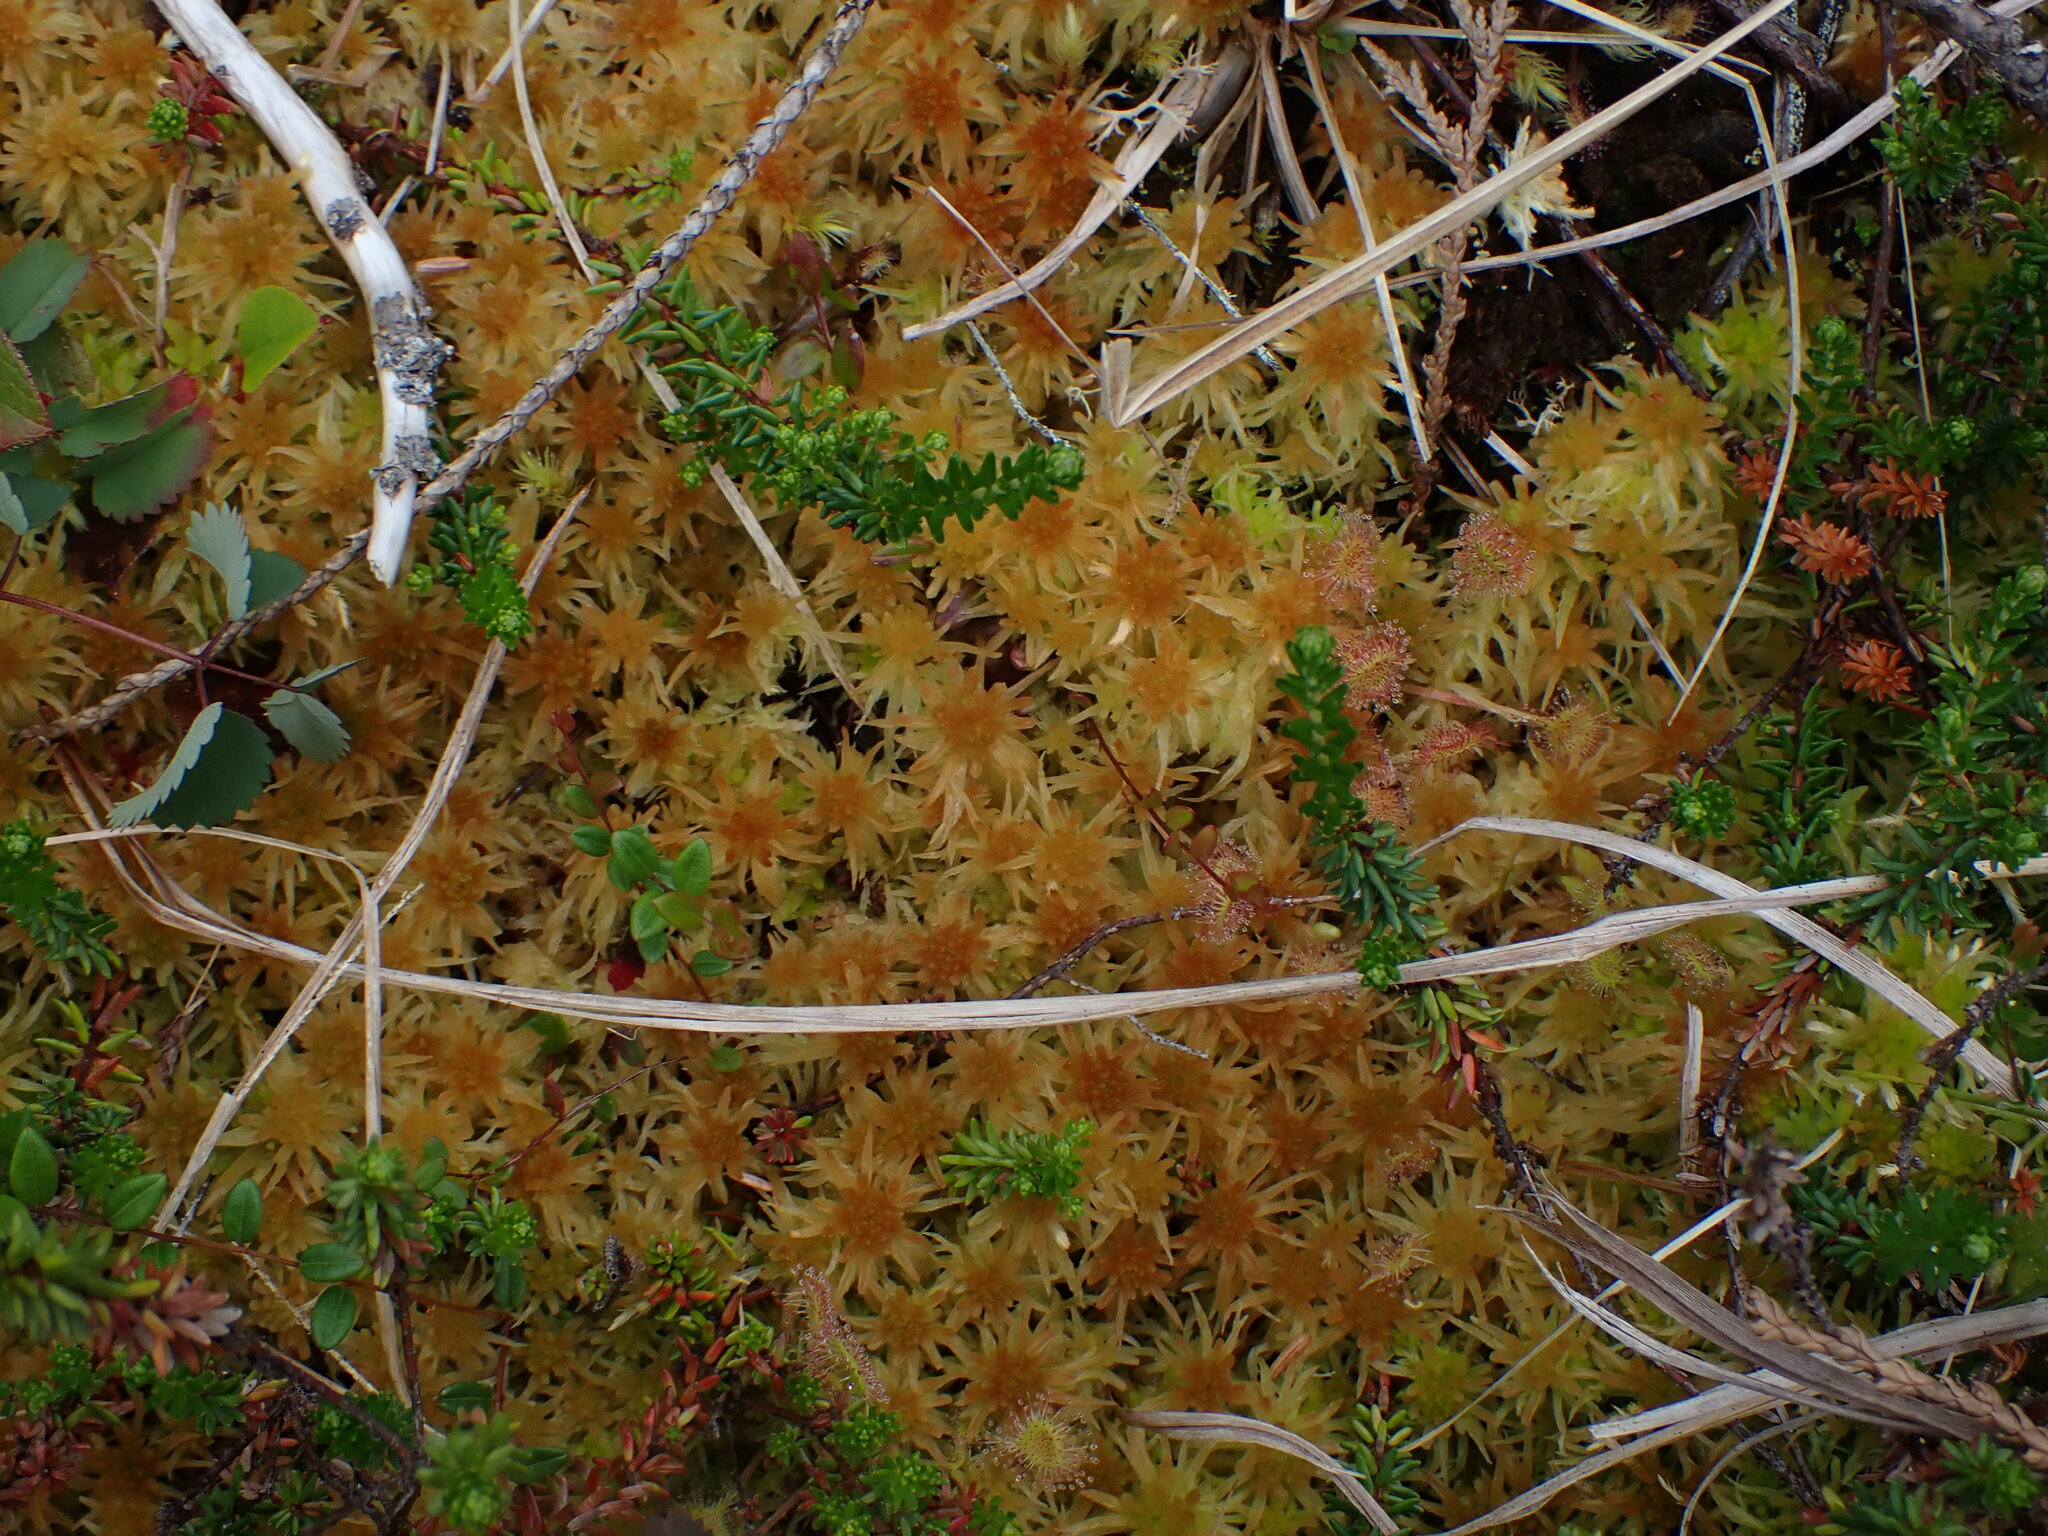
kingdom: Plantae
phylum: Bryophyta
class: Sphagnopsida
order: Sphagnales
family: Sphagnaceae
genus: Sphagnum
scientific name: Sphagnum pacificum
